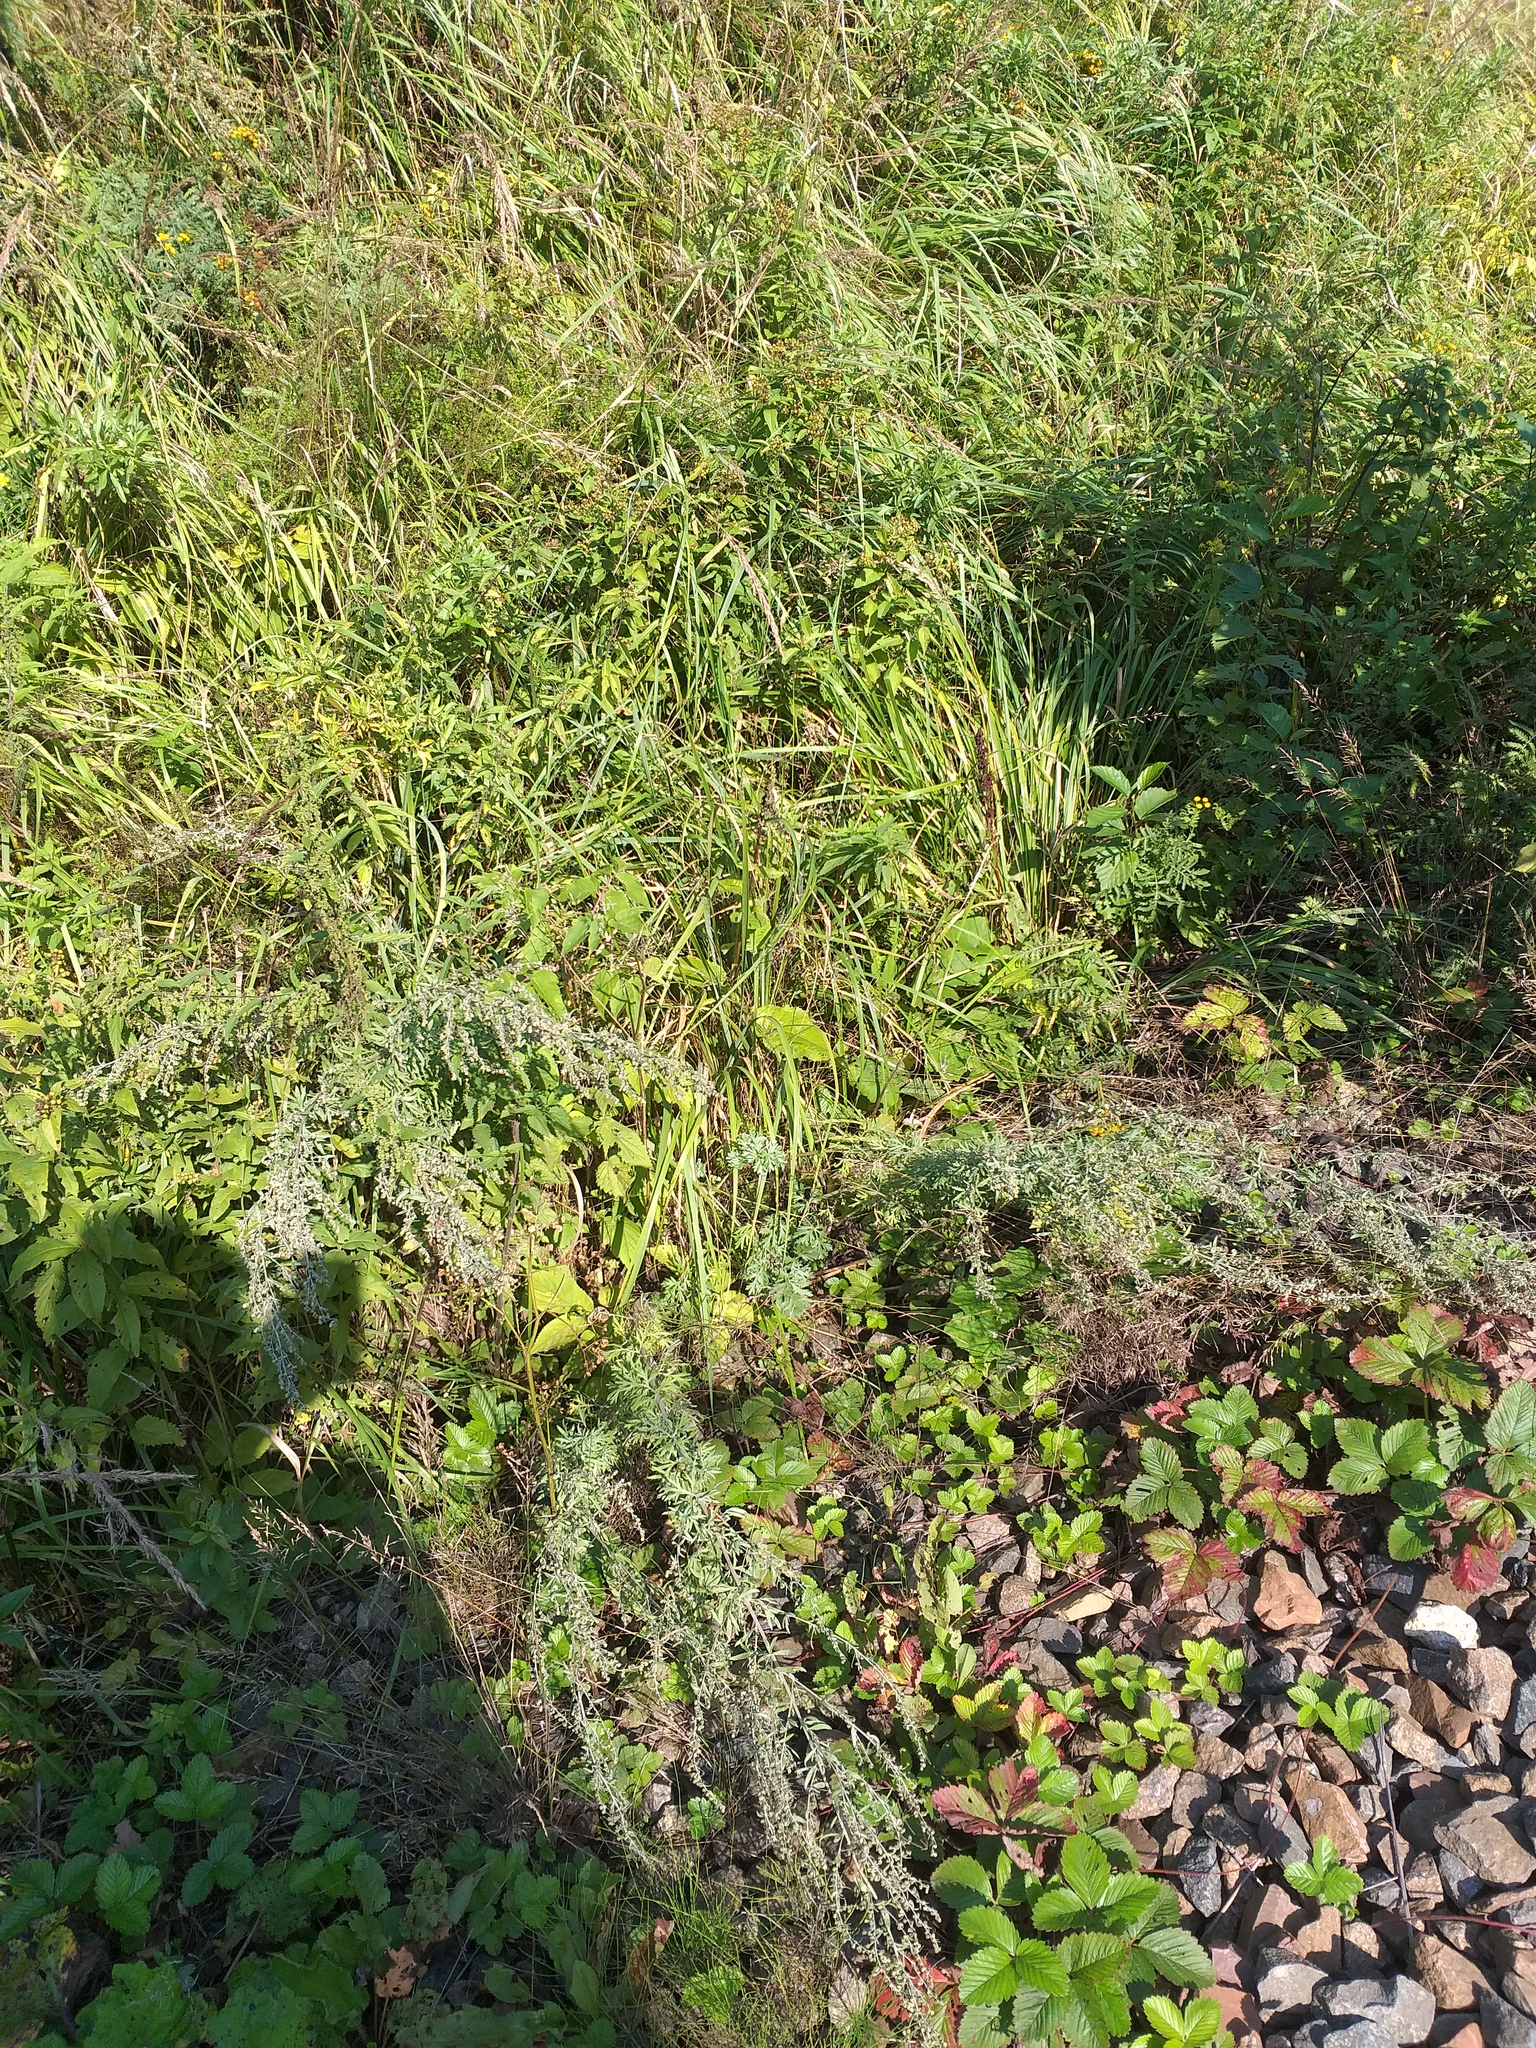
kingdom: Plantae
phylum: Tracheophyta
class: Magnoliopsida
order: Rosales
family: Rosaceae
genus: Fragaria
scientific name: Fragaria vesca
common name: Wild strawberry
